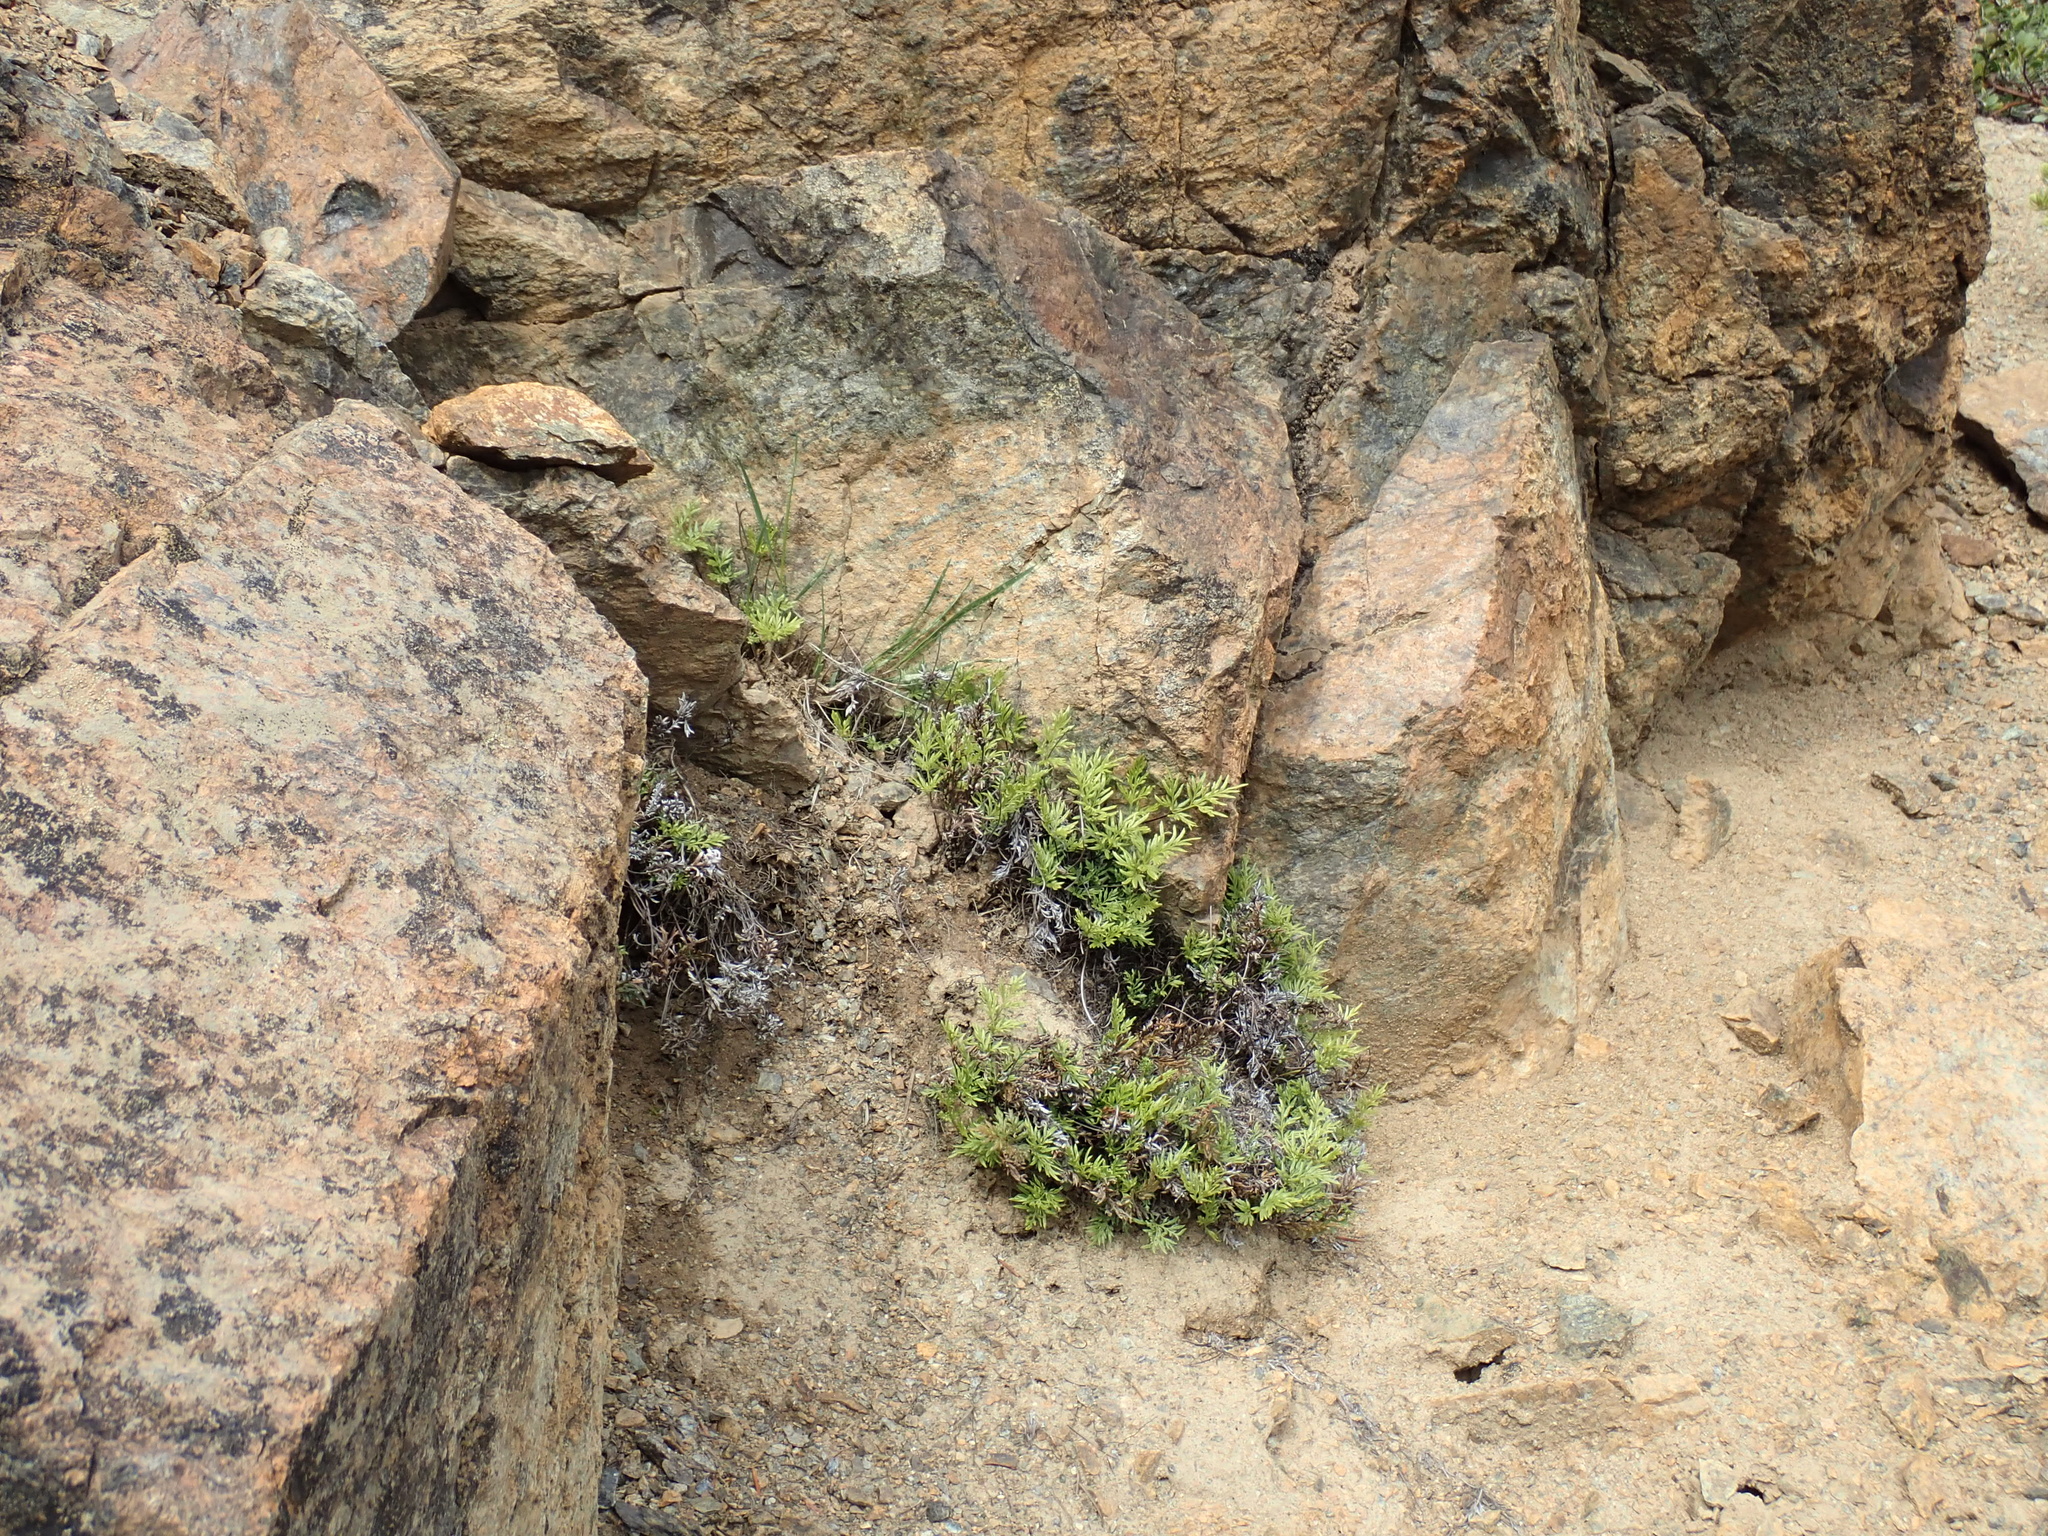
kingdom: Plantae
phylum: Tracheophyta
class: Polypodiopsida
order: Polypodiales
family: Pteridaceae
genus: Aspidotis
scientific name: Aspidotis densa
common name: Indian's dream
